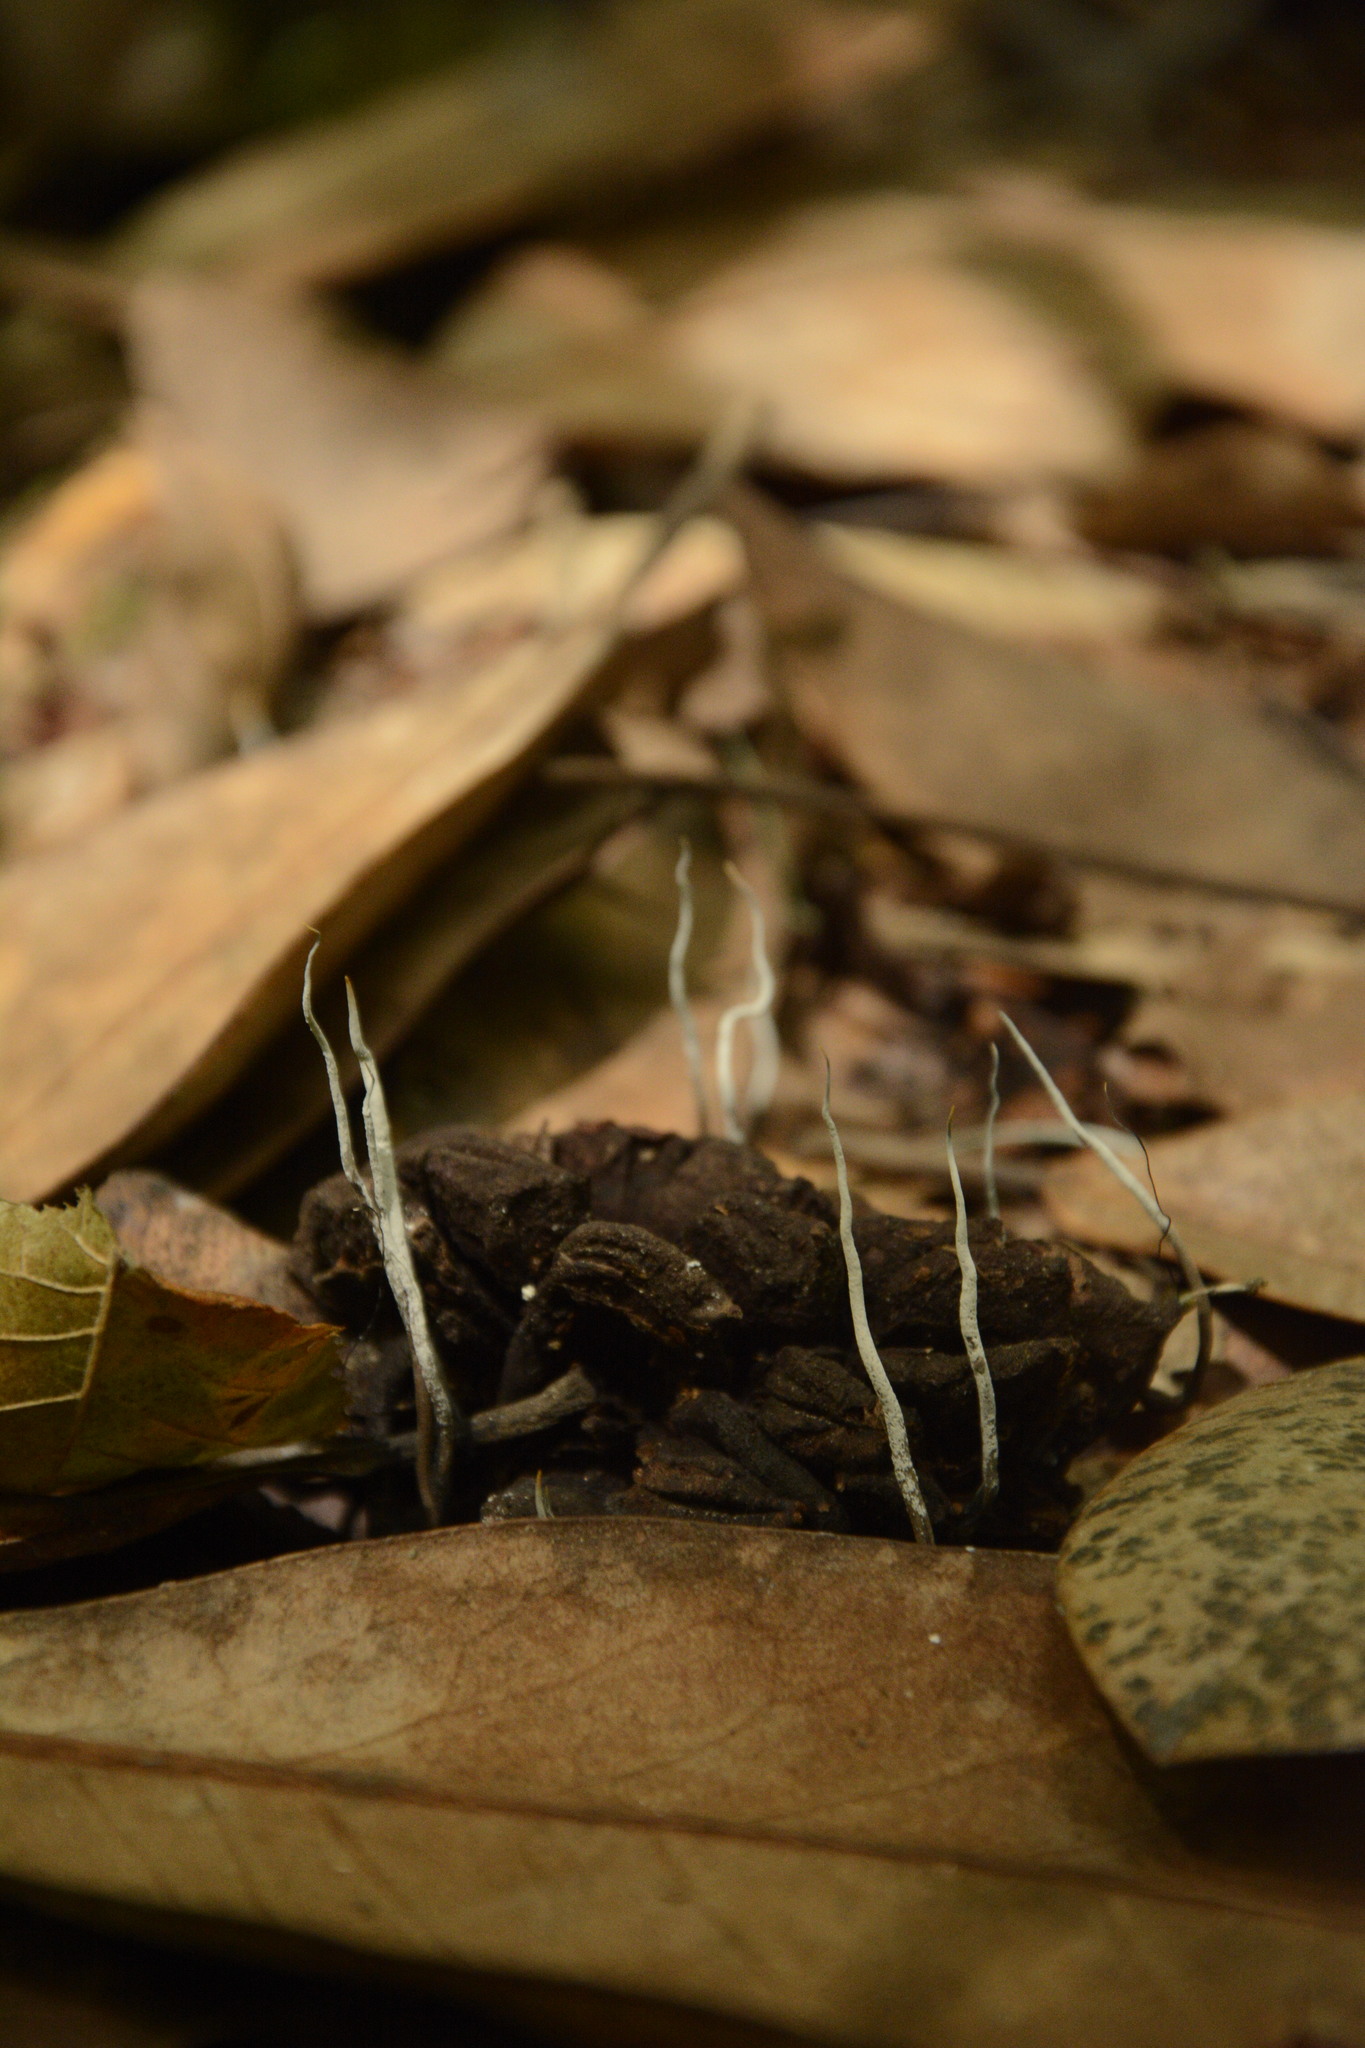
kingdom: Fungi
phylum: Ascomycota
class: Sordariomycetes
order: Xylariales
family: Xylariaceae
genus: Xylaria
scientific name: Xylaria magnoliae
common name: Magnolia-cone xylaria
